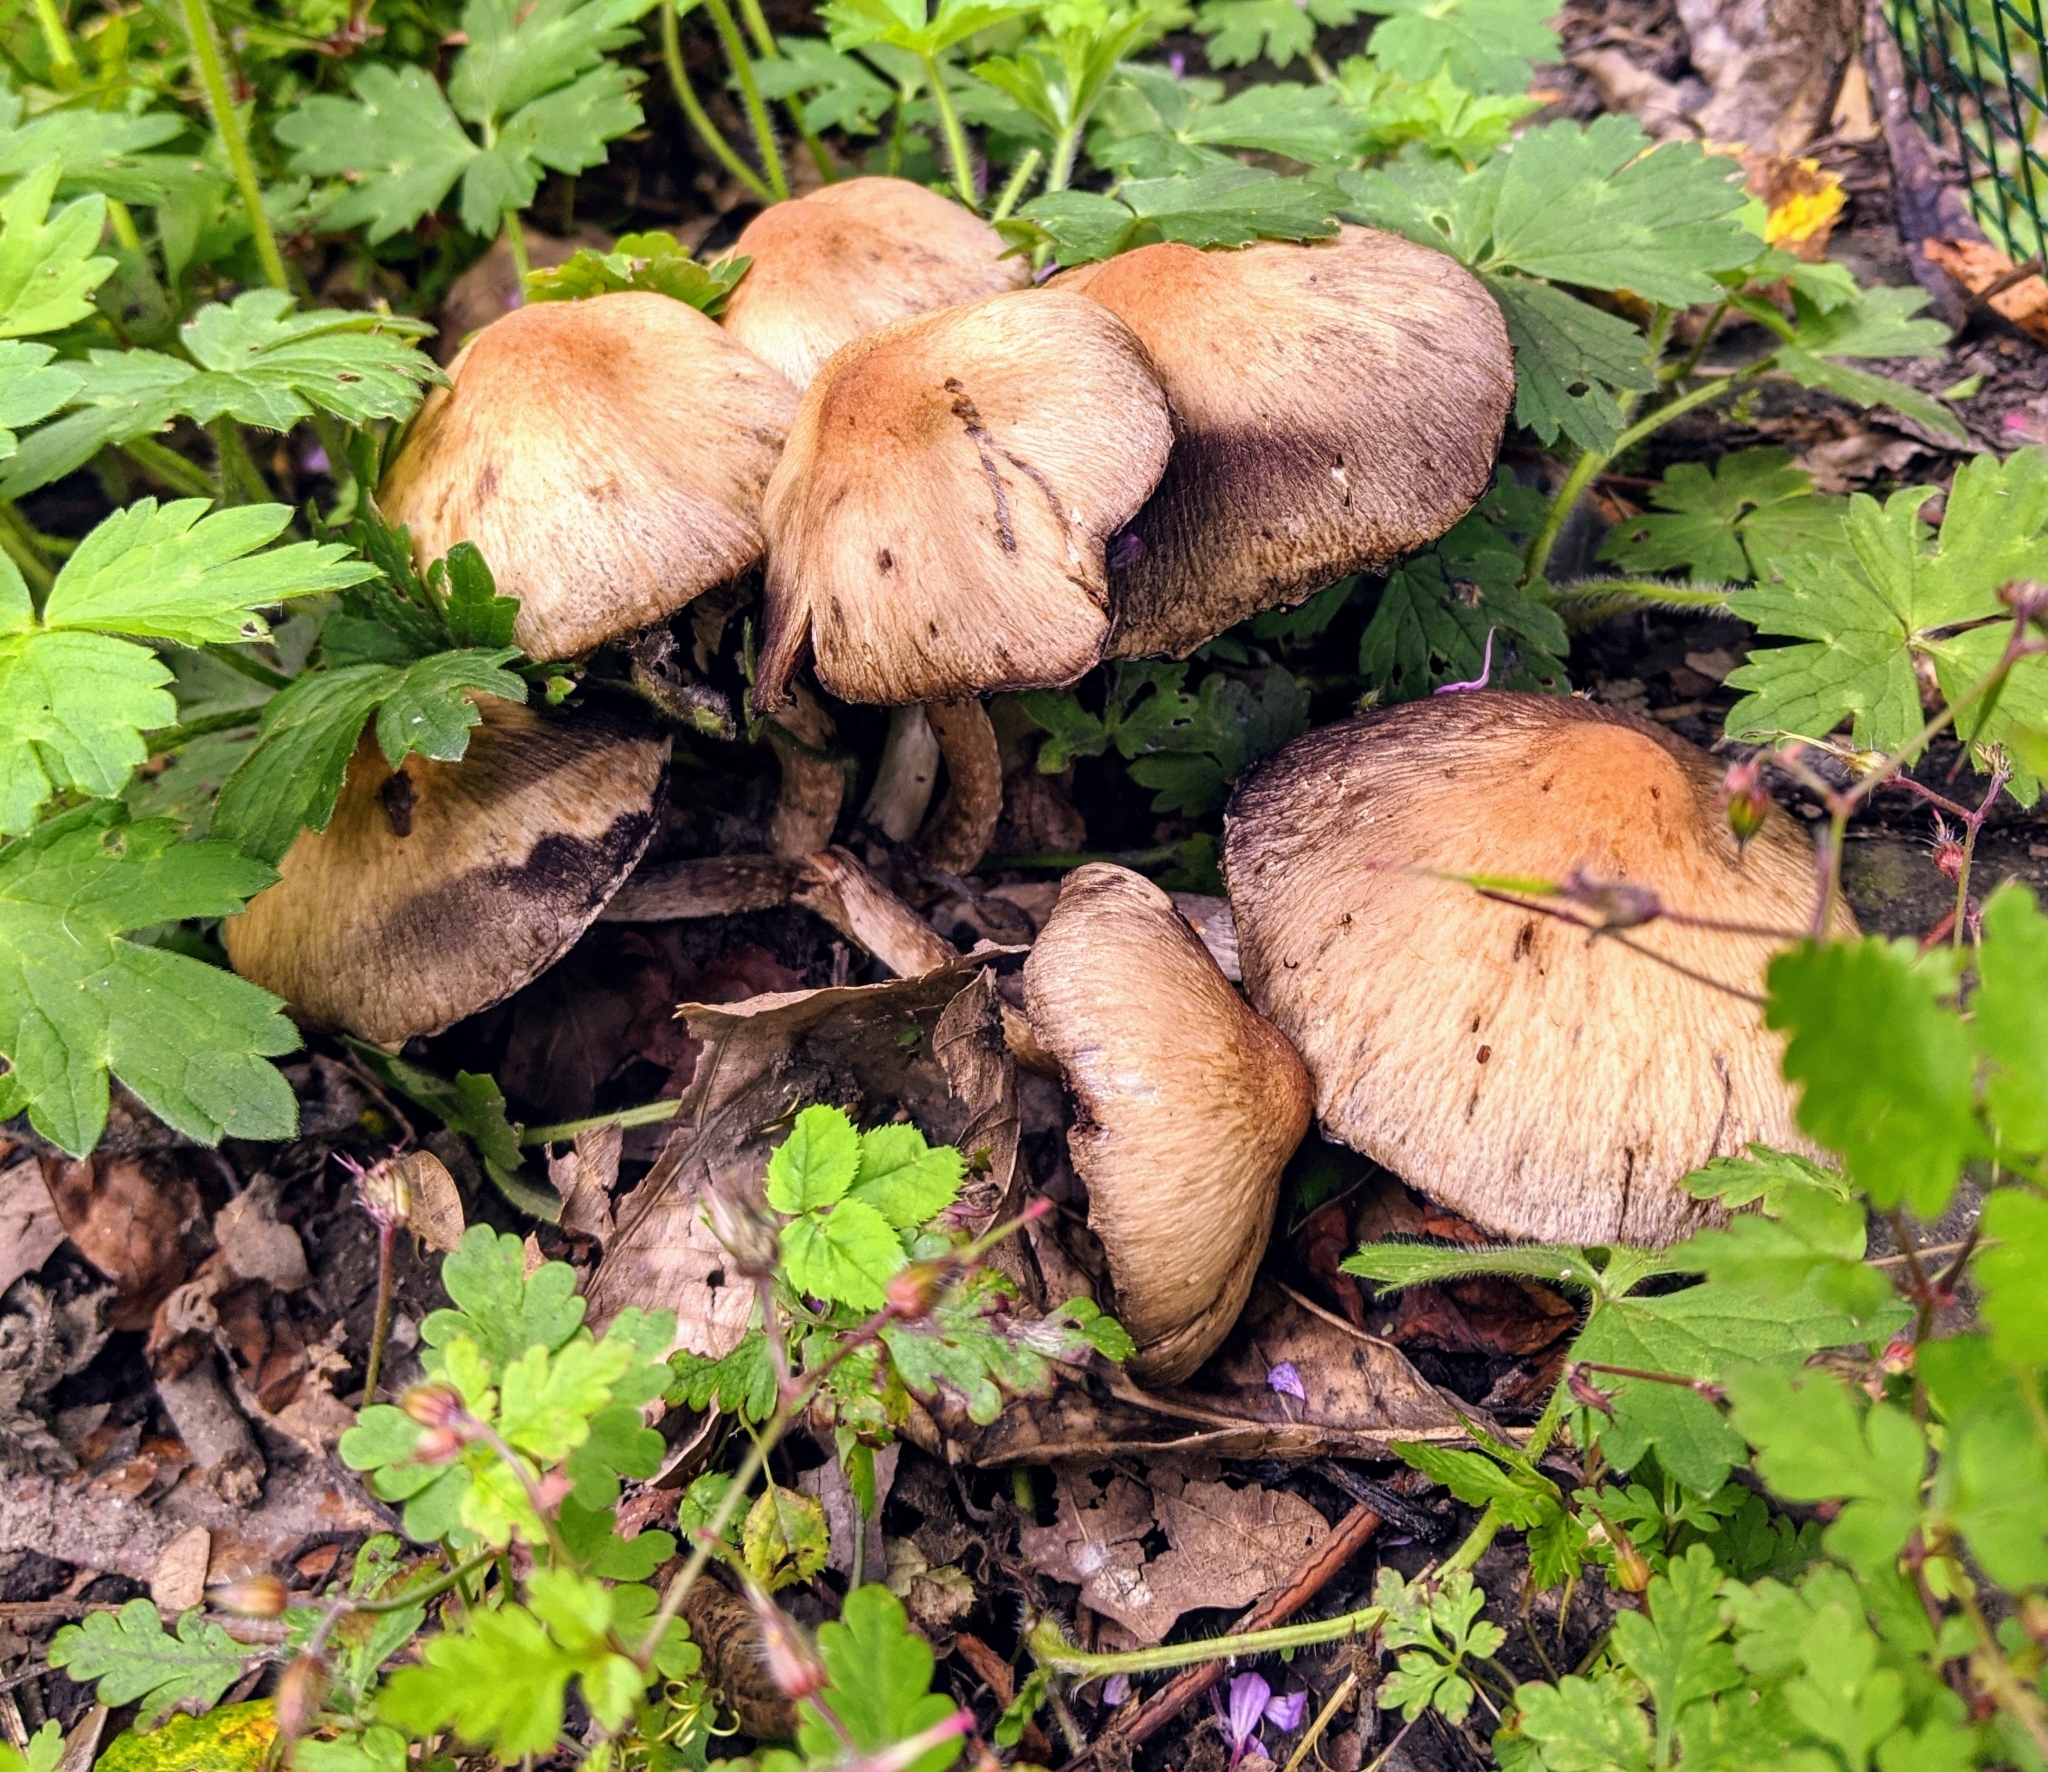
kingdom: Fungi
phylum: Basidiomycota
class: Agaricomycetes
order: Agaricales
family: Psathyrellaceae
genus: Lacrymaria
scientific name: Lacrymaria lacrymabunda
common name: Weeping widow
